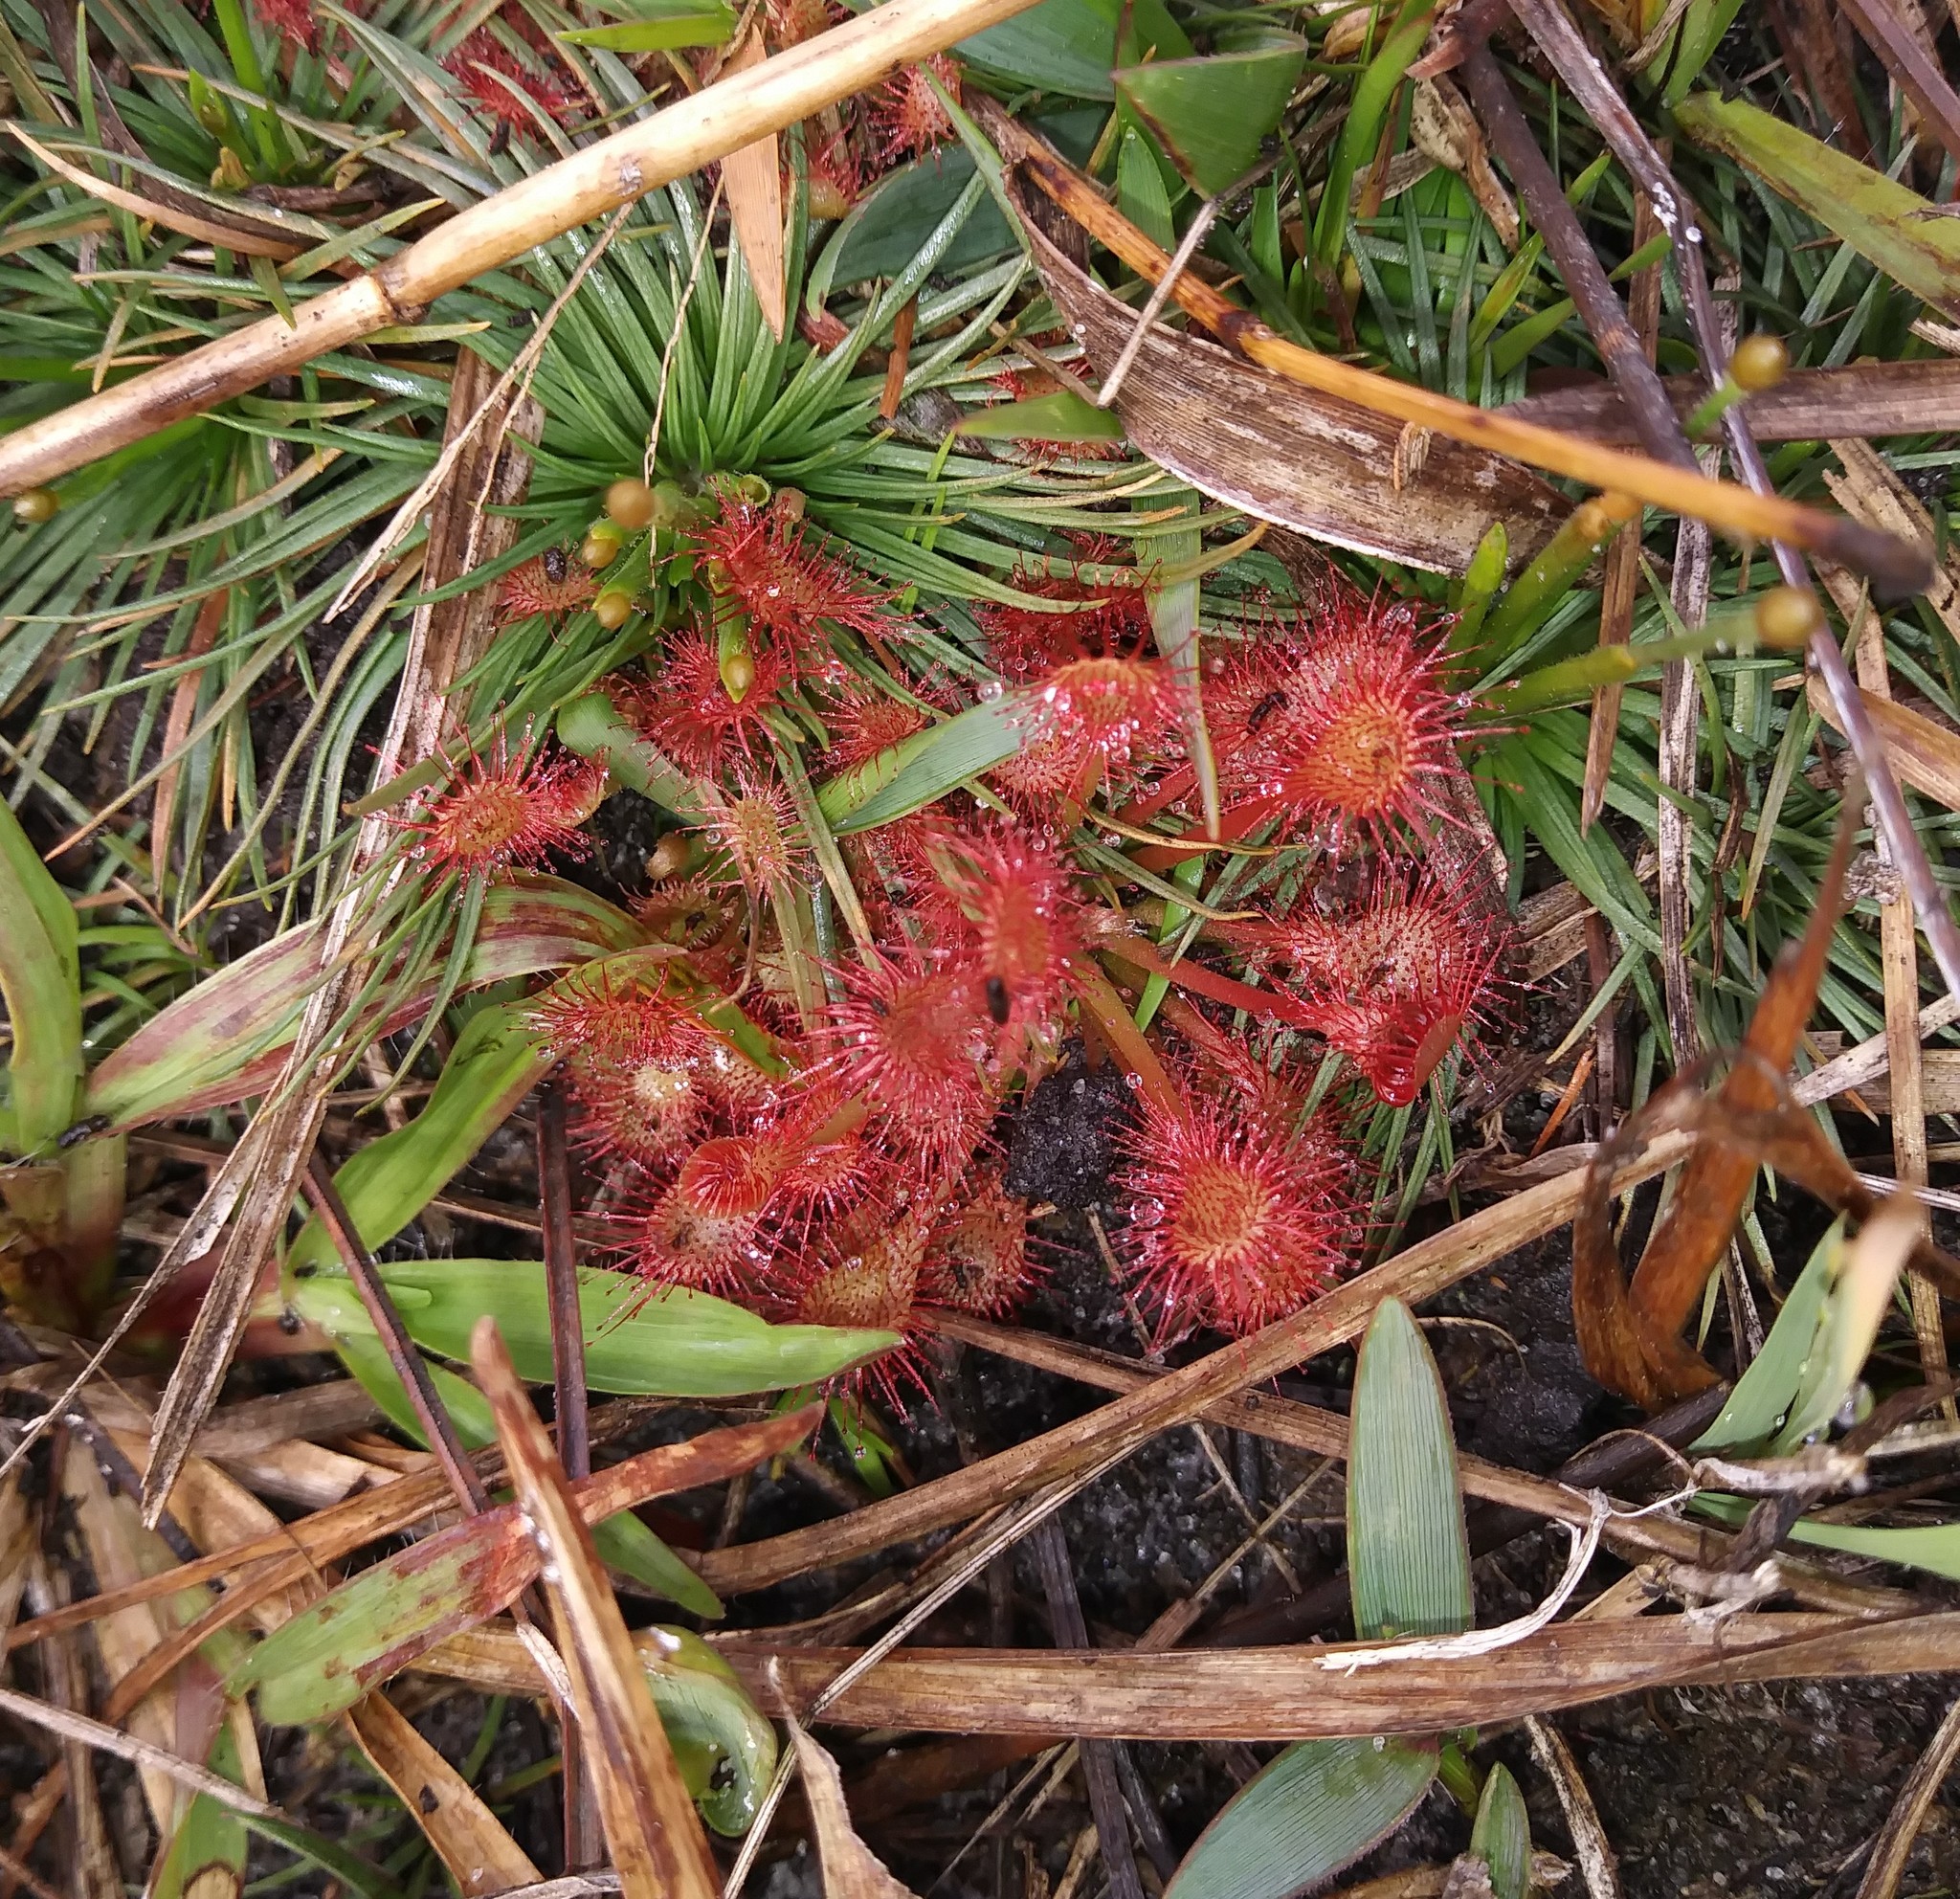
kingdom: Plantae
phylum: Tracheophyta
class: Magnoliopsida
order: Caryophyllales
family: Droseraceae
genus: Drosera
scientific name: Drosera capillaris
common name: Pink sundew
